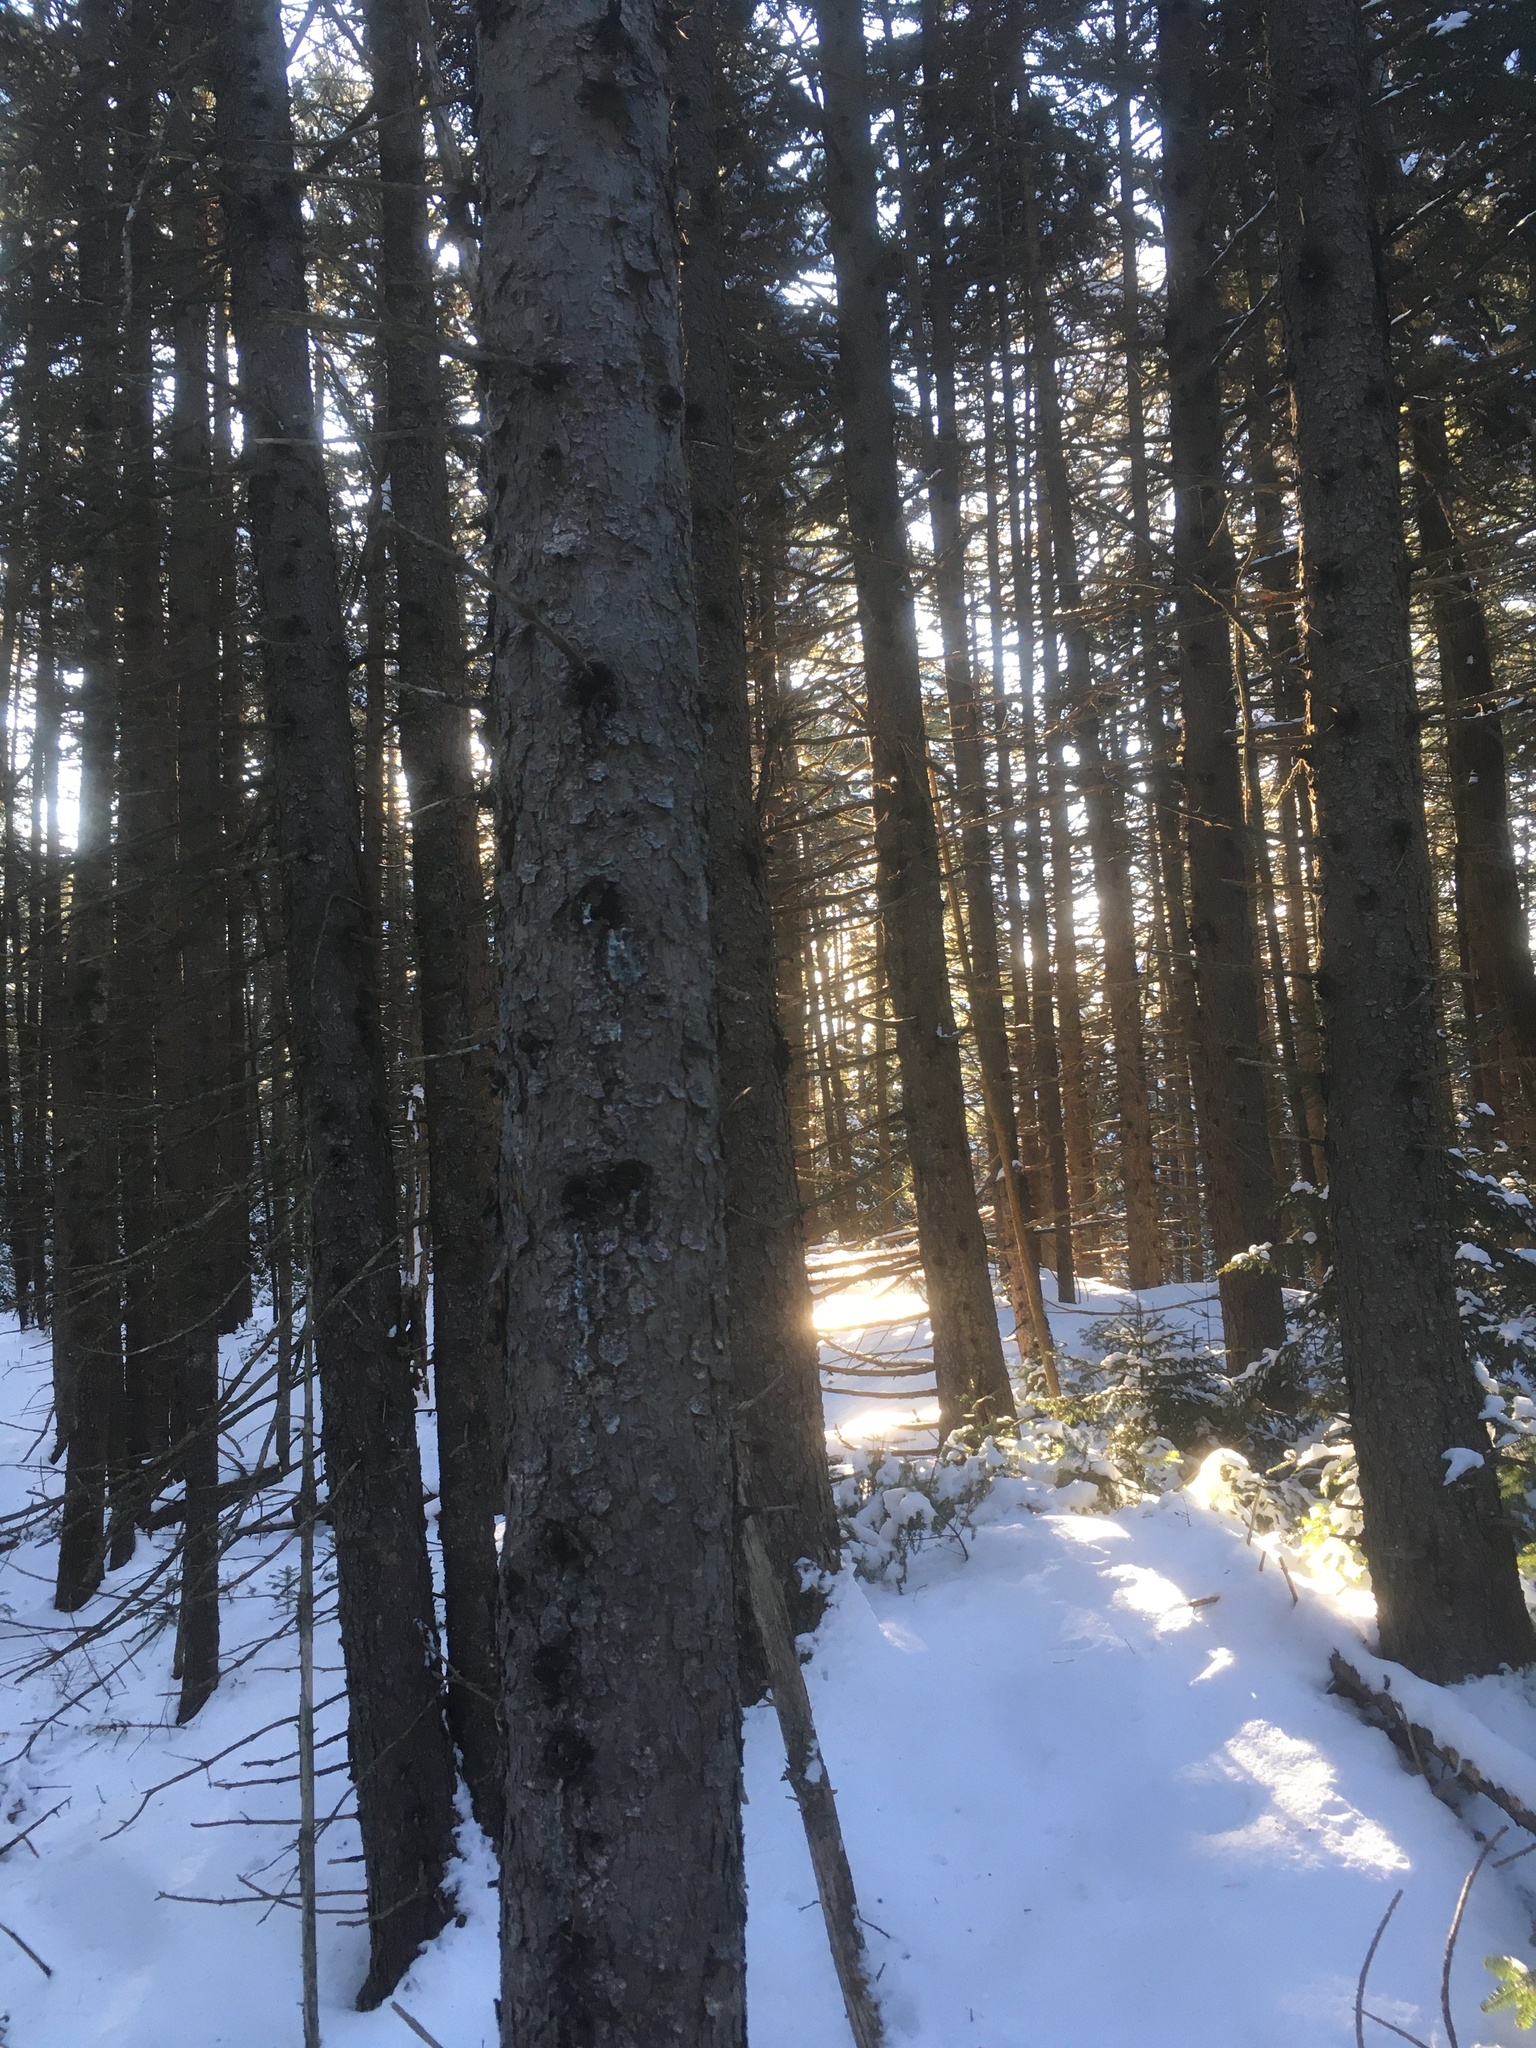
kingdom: Plantae
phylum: Tracheophyta
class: Pinopsida
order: Pinales
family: Pinaceae
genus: Picea
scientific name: Picea rubens
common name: Red spruce
